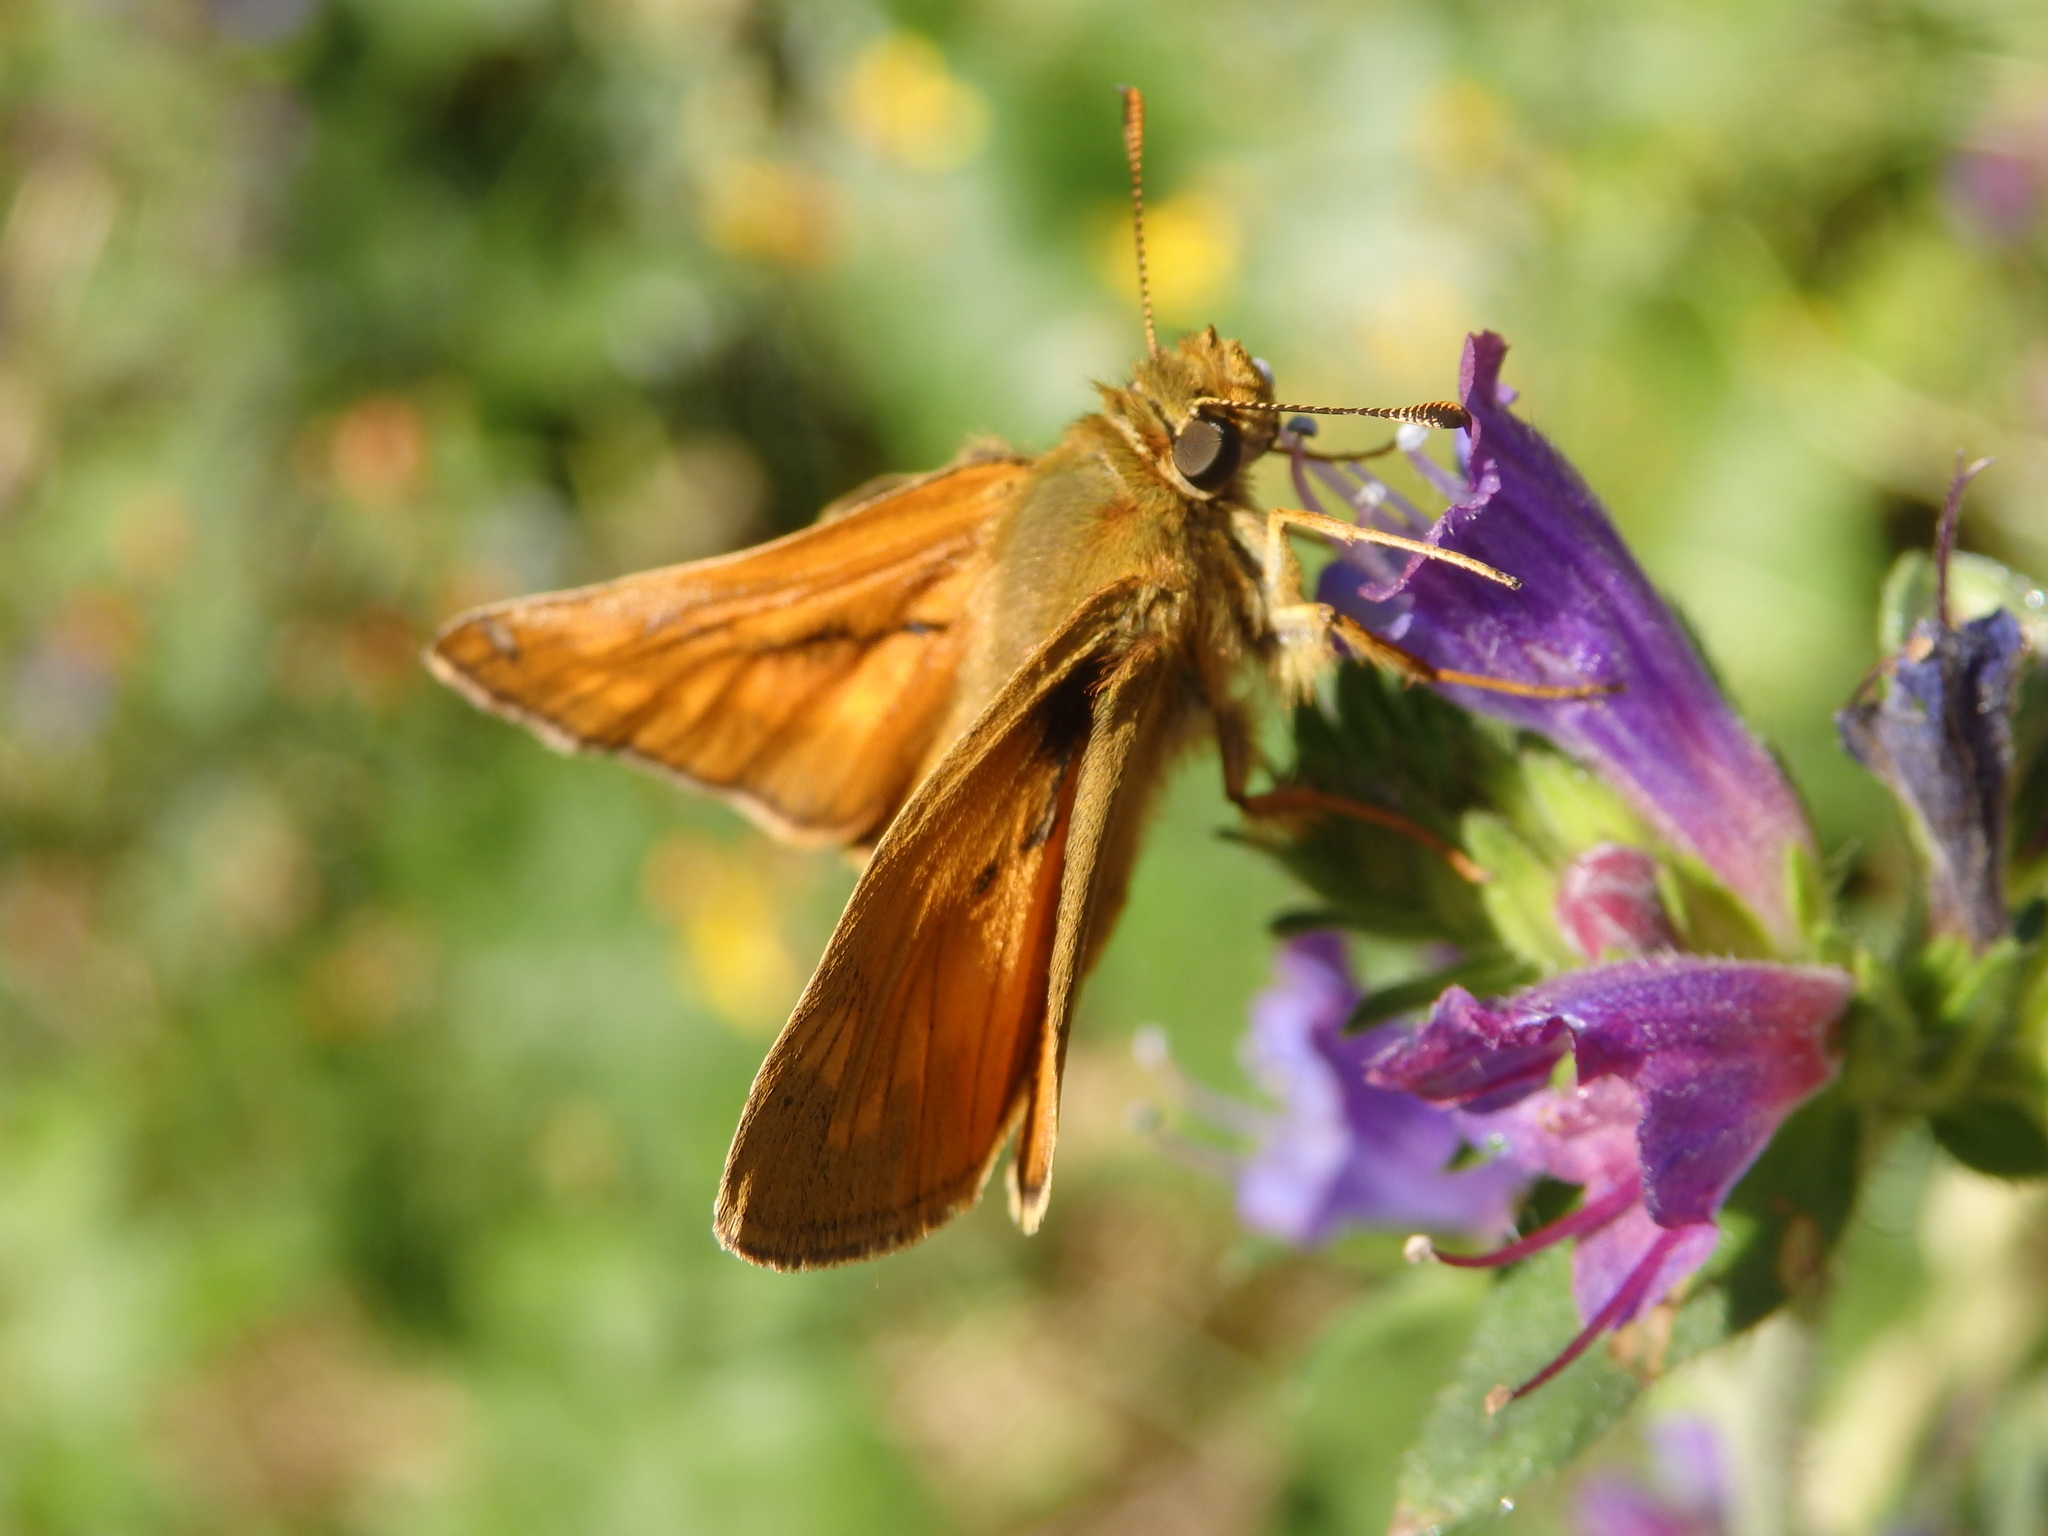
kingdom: Animalia
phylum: Arthropoda
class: Insecta
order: Lepidoptera
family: Hesperiidae
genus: Ochlodes
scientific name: Ochlodes venata
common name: Large skipper
